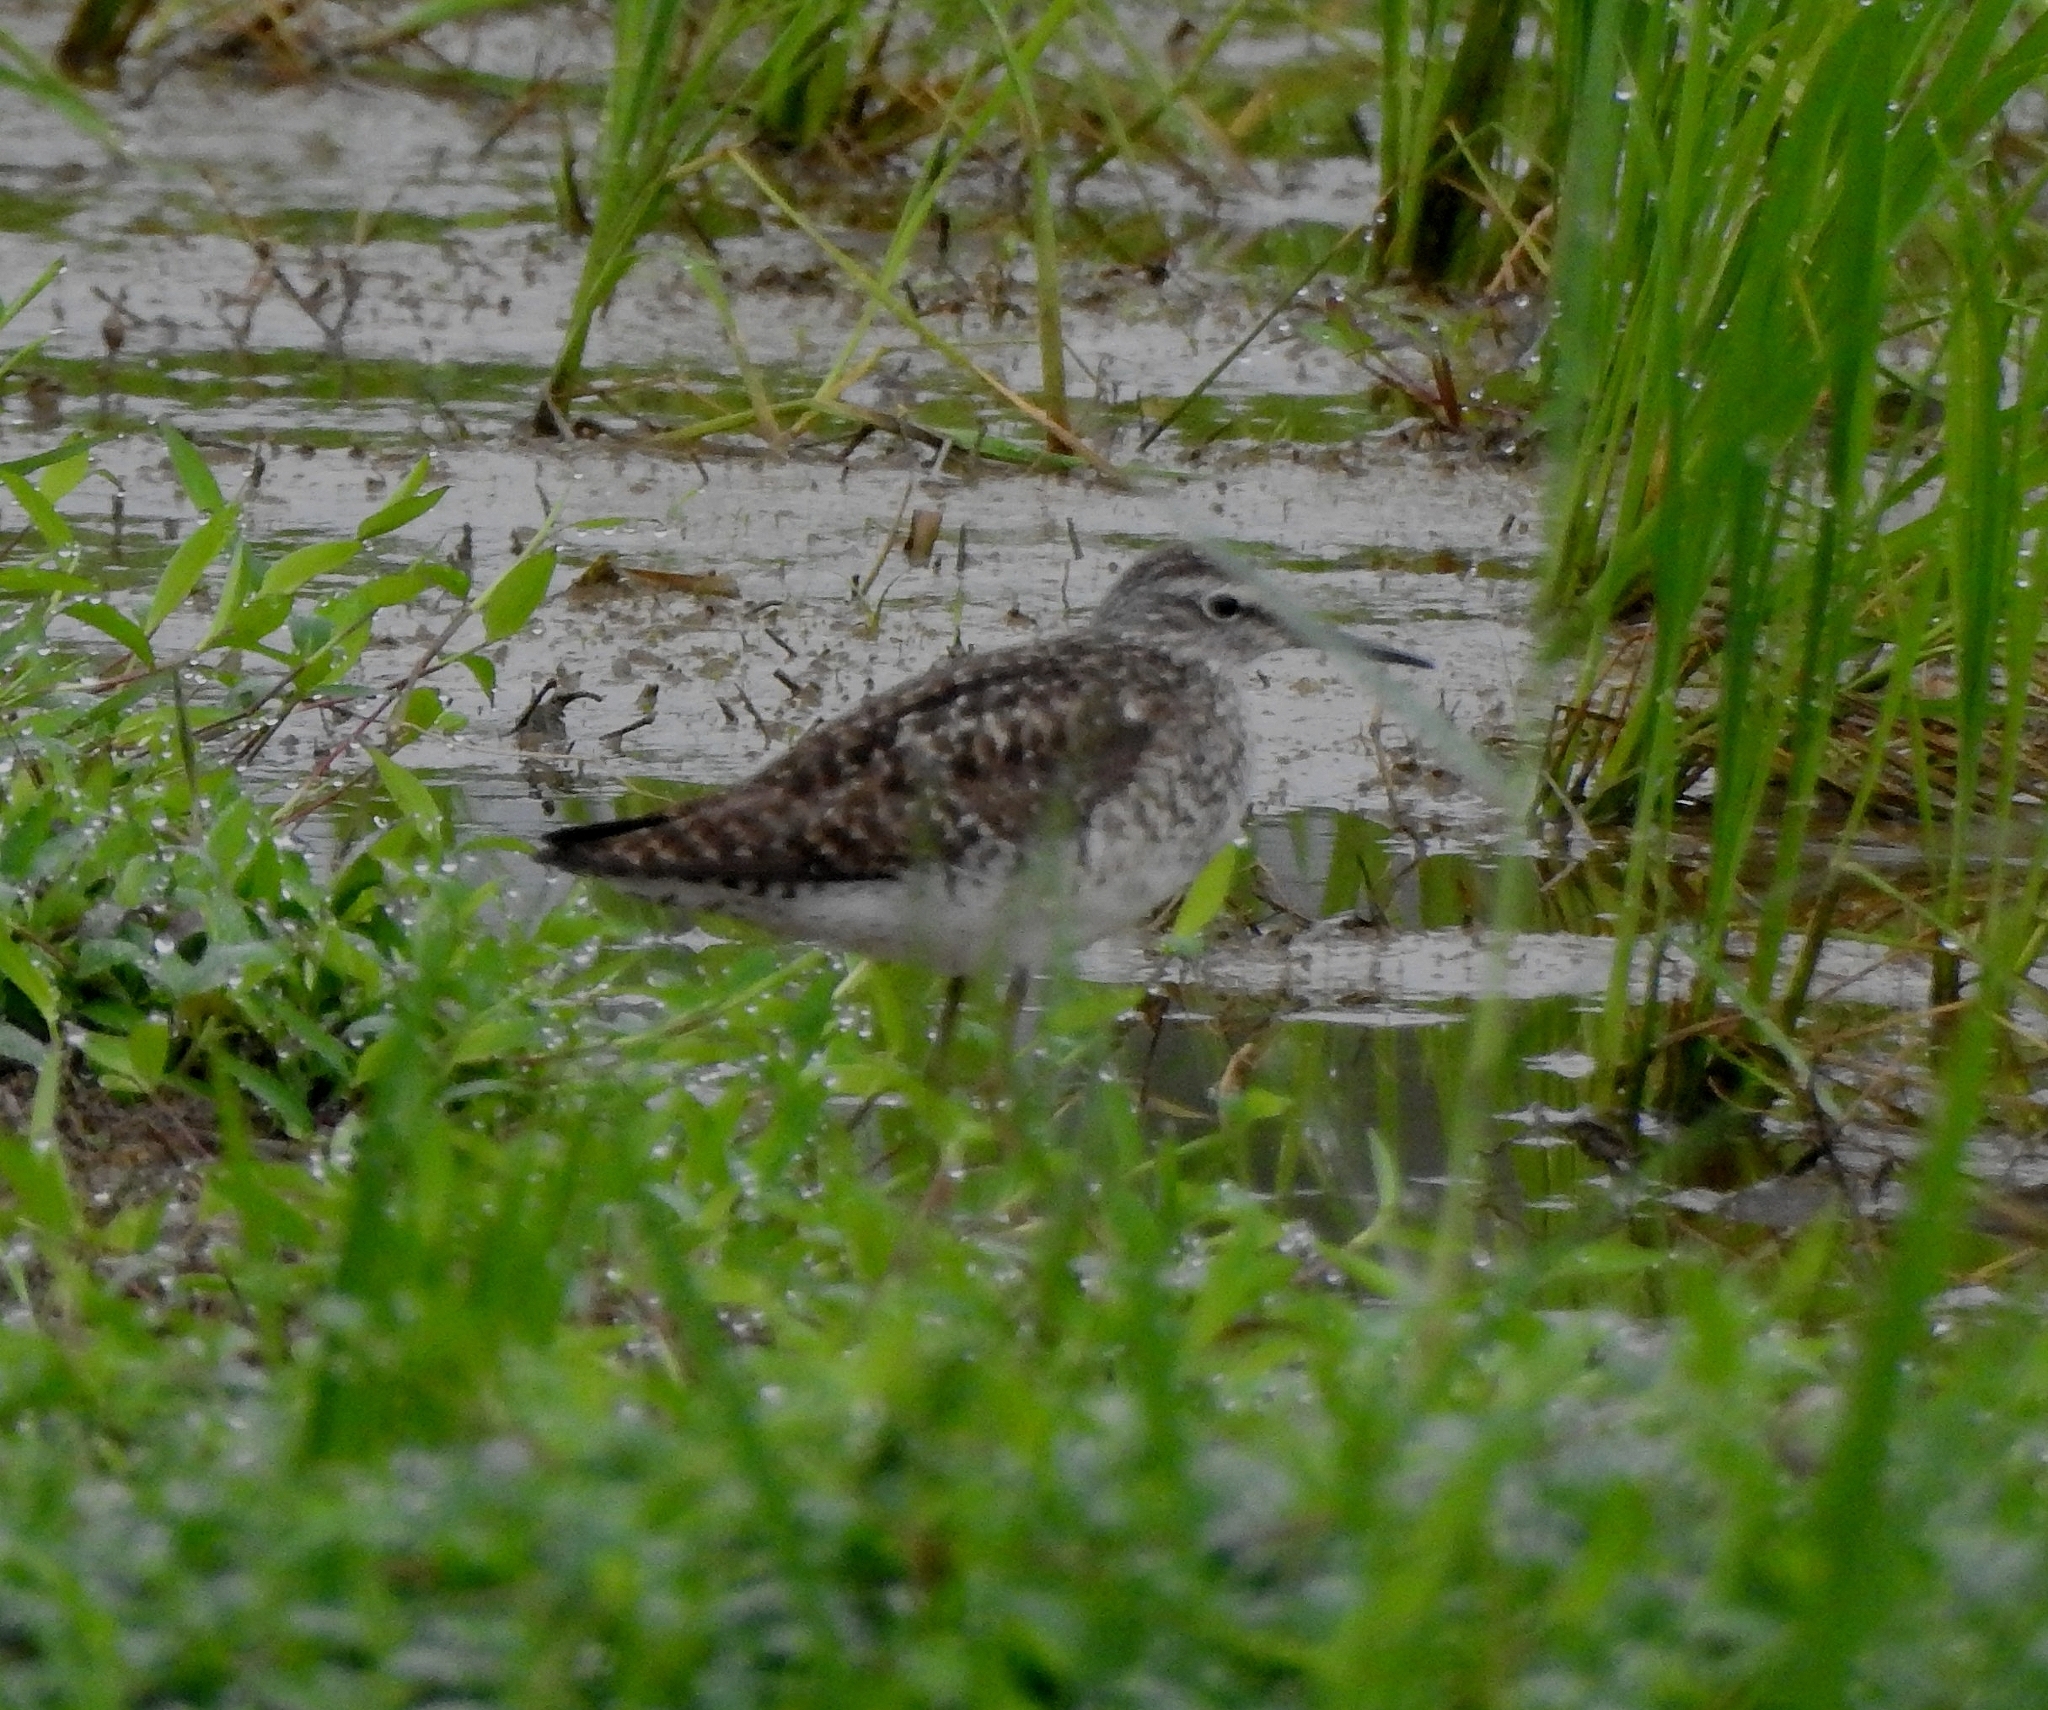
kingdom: Animalia
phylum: Chordata
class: Aves
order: Charadriiformes
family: Scolopacidae
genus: Tringa
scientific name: Tringa glareola
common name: Wood sandpiper
